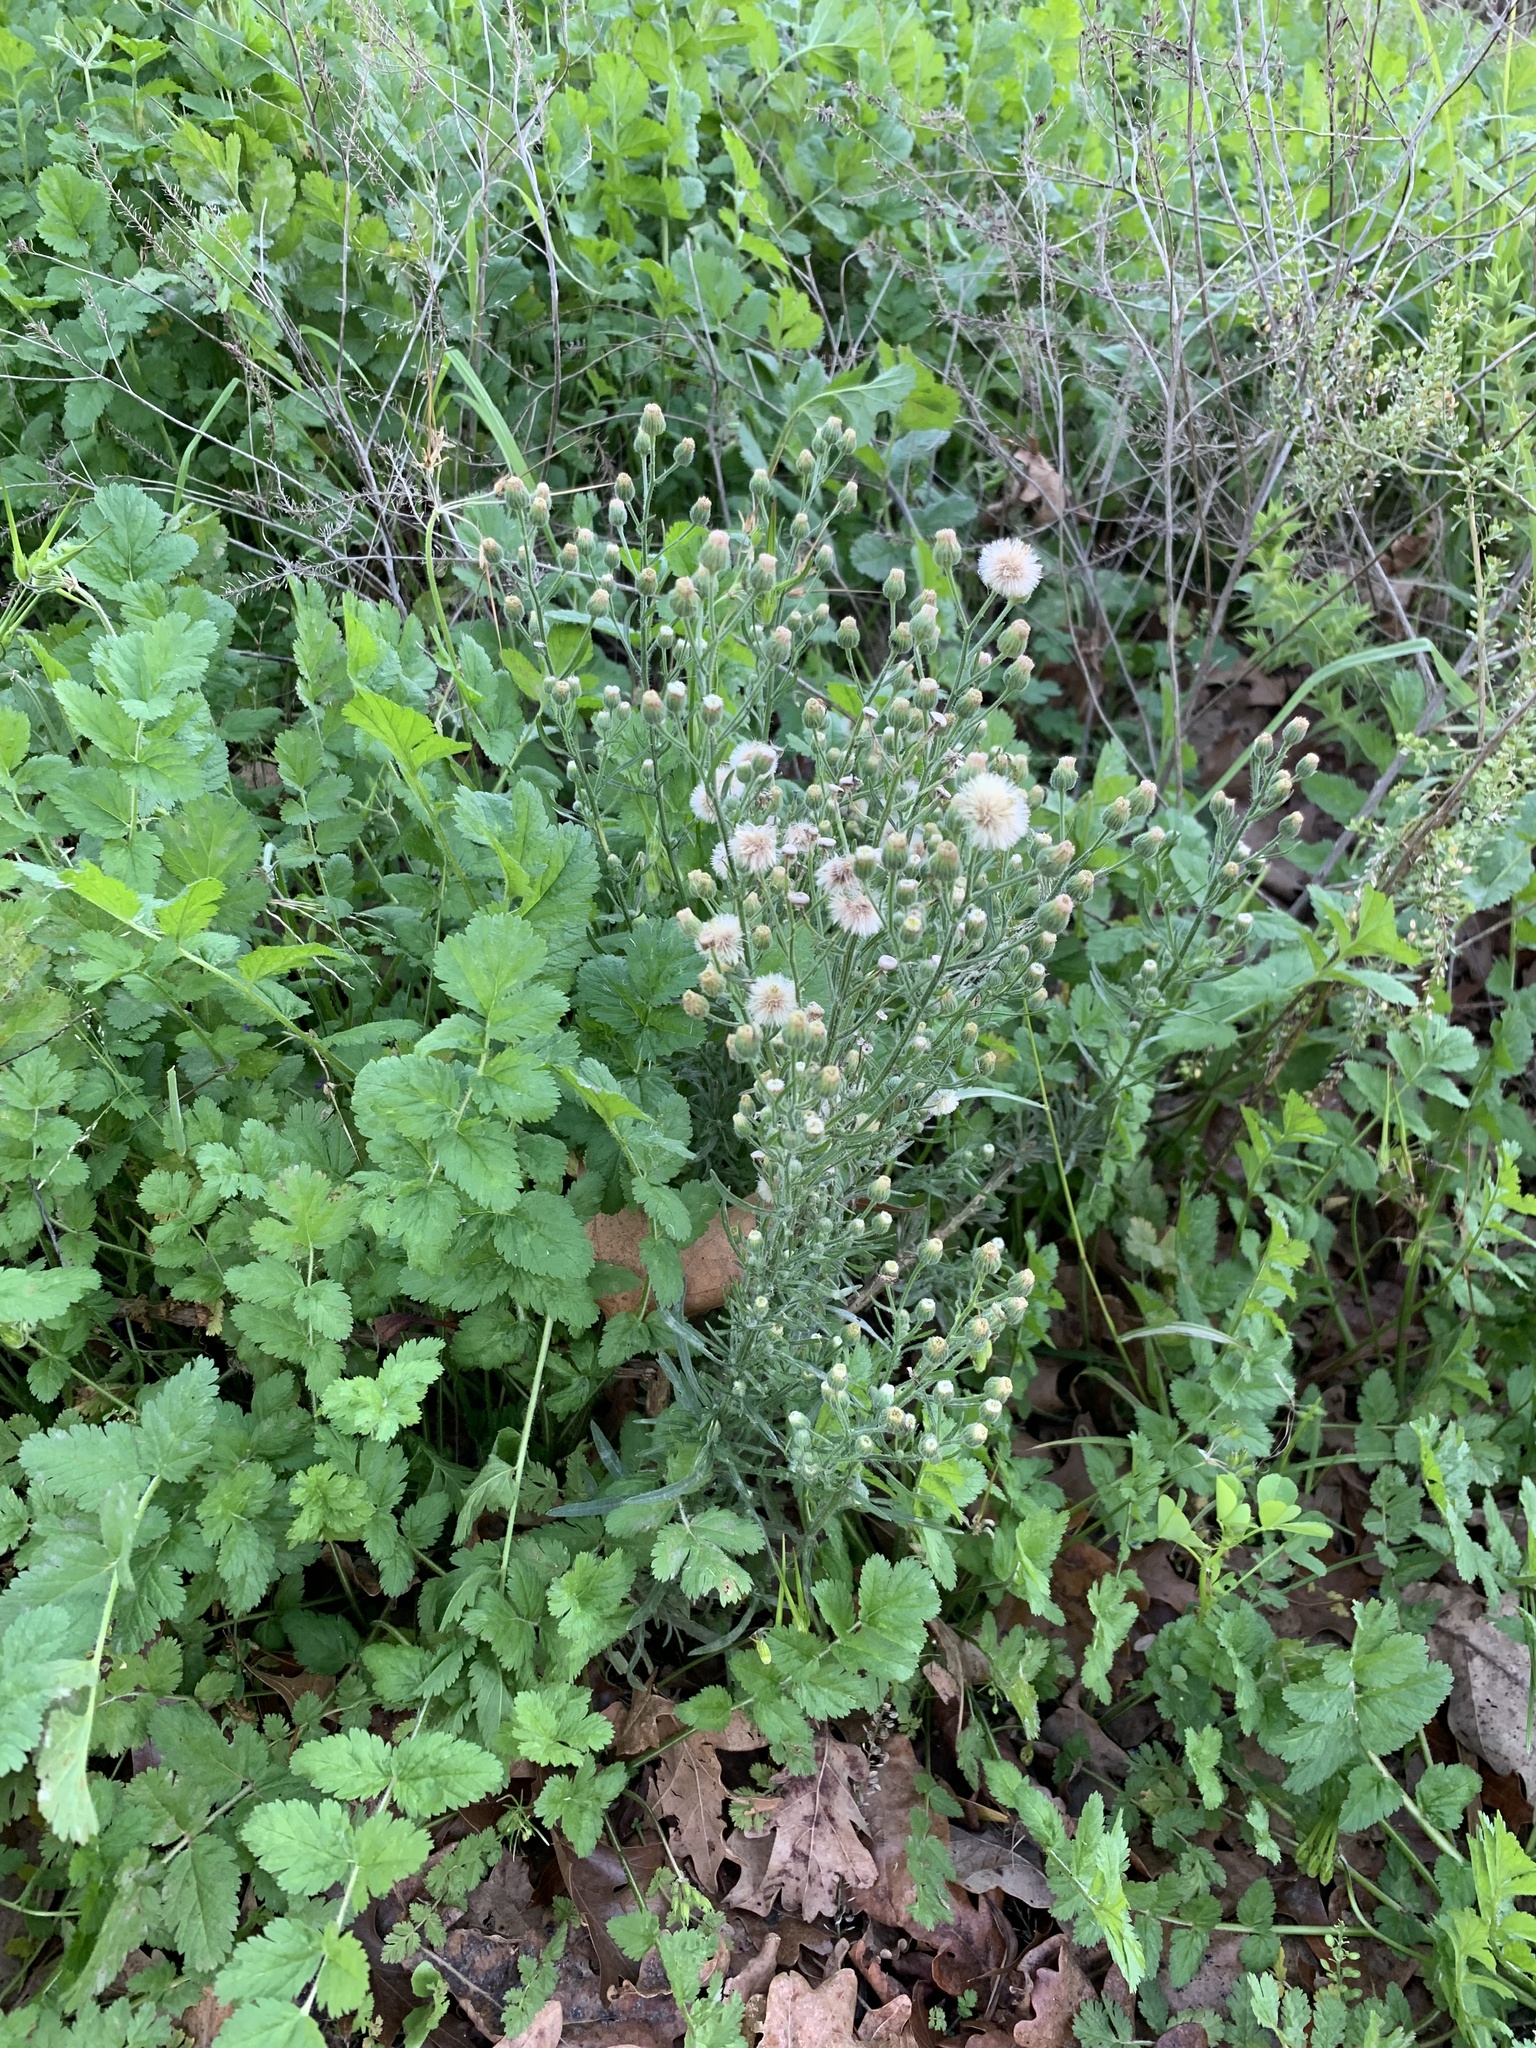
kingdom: Plantae
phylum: Tracheophyta
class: Magnoliopsida
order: Asterales
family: Asteraceae
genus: Erigeron
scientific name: Erigeron bonariensis
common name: Argentine fleabane
